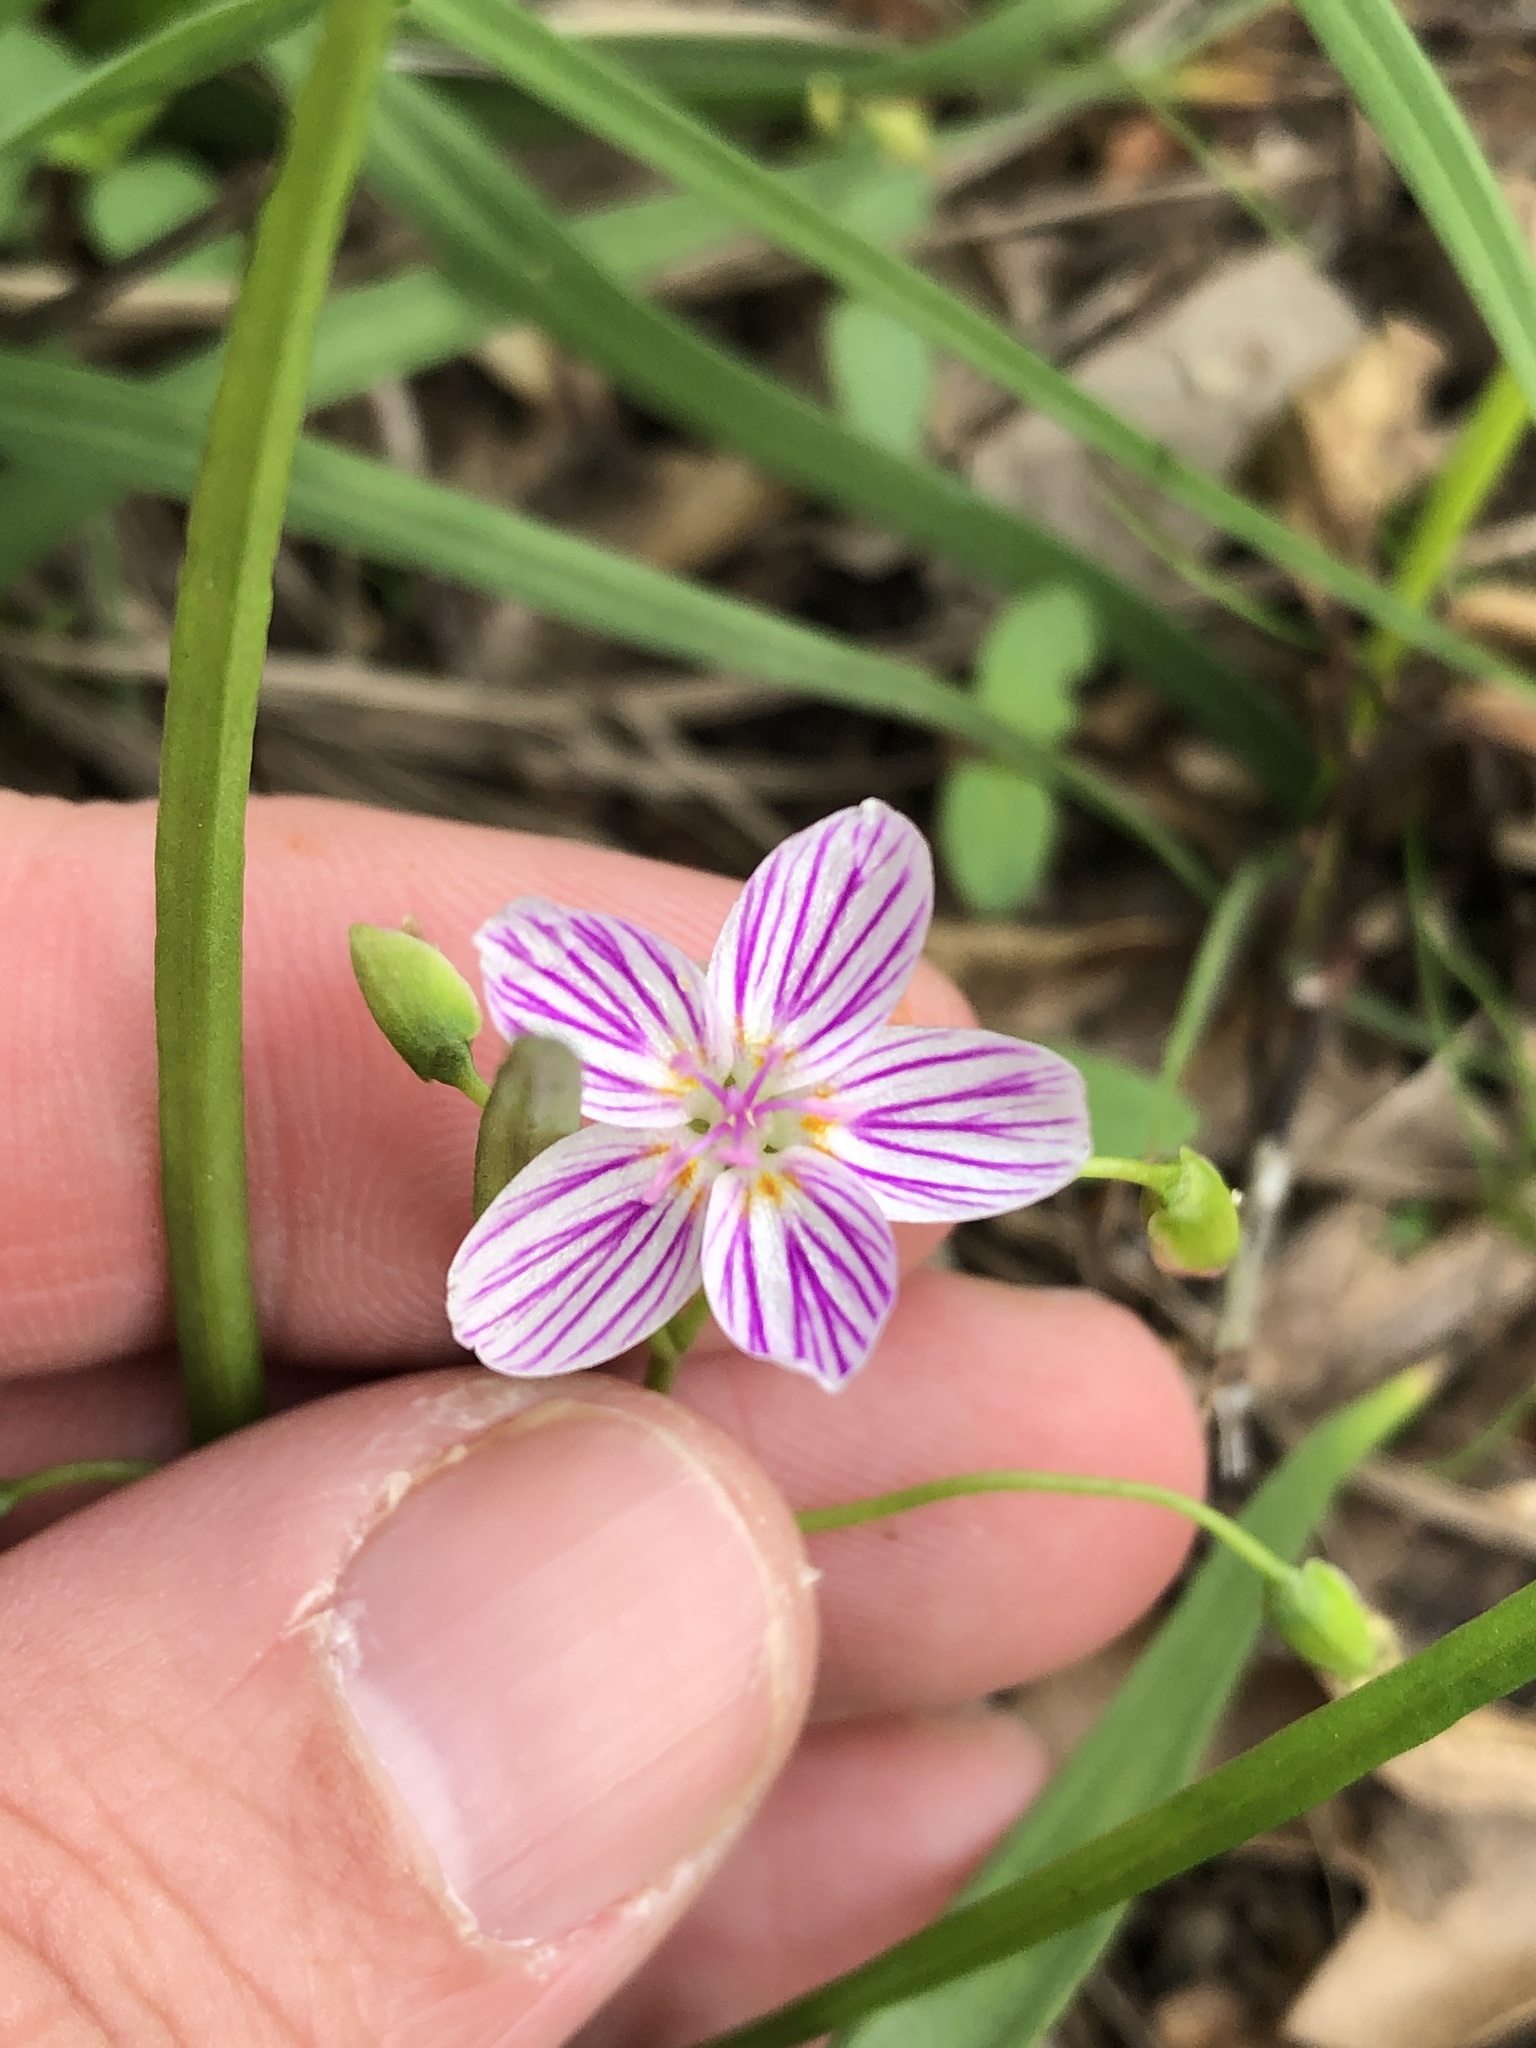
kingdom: Plantae
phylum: Tracheophyta
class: Magnoliopsida
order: Caryophyllales
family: Montiaceae
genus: Claytonia
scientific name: Claytonia virginica
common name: Virginia springbeauty
